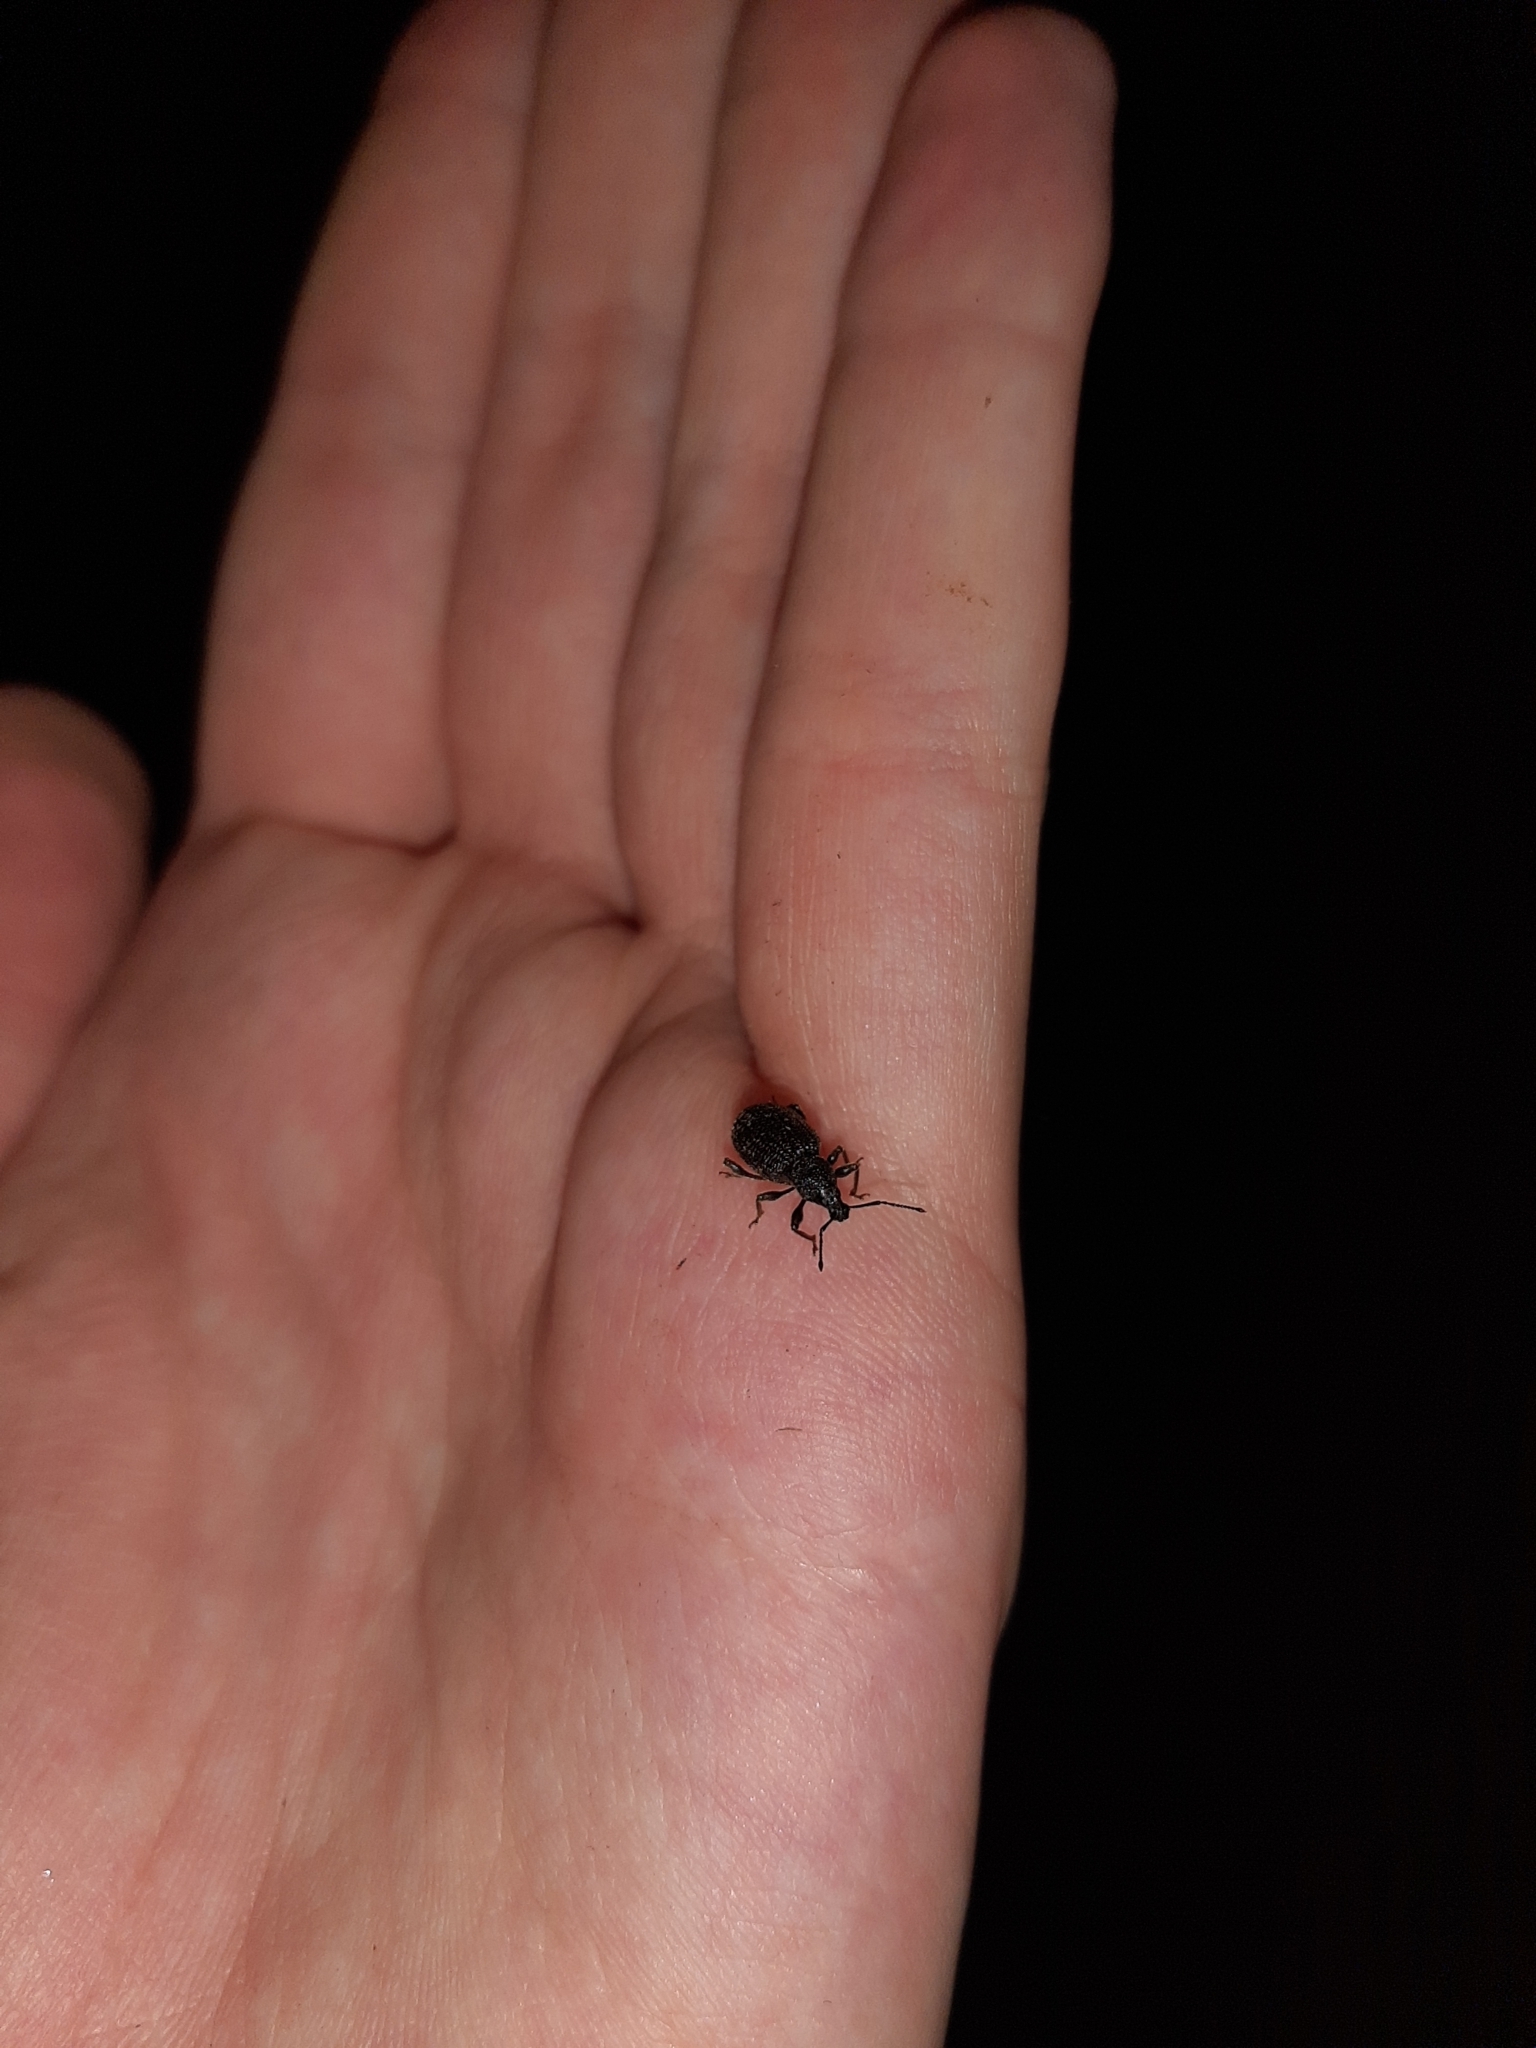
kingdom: Animalia
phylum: Arthropoda
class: Insecta
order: Coleoptera
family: Curculionidae
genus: Otiorhynchus
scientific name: Otiorhynchus rugosostriatus
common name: Weevil
